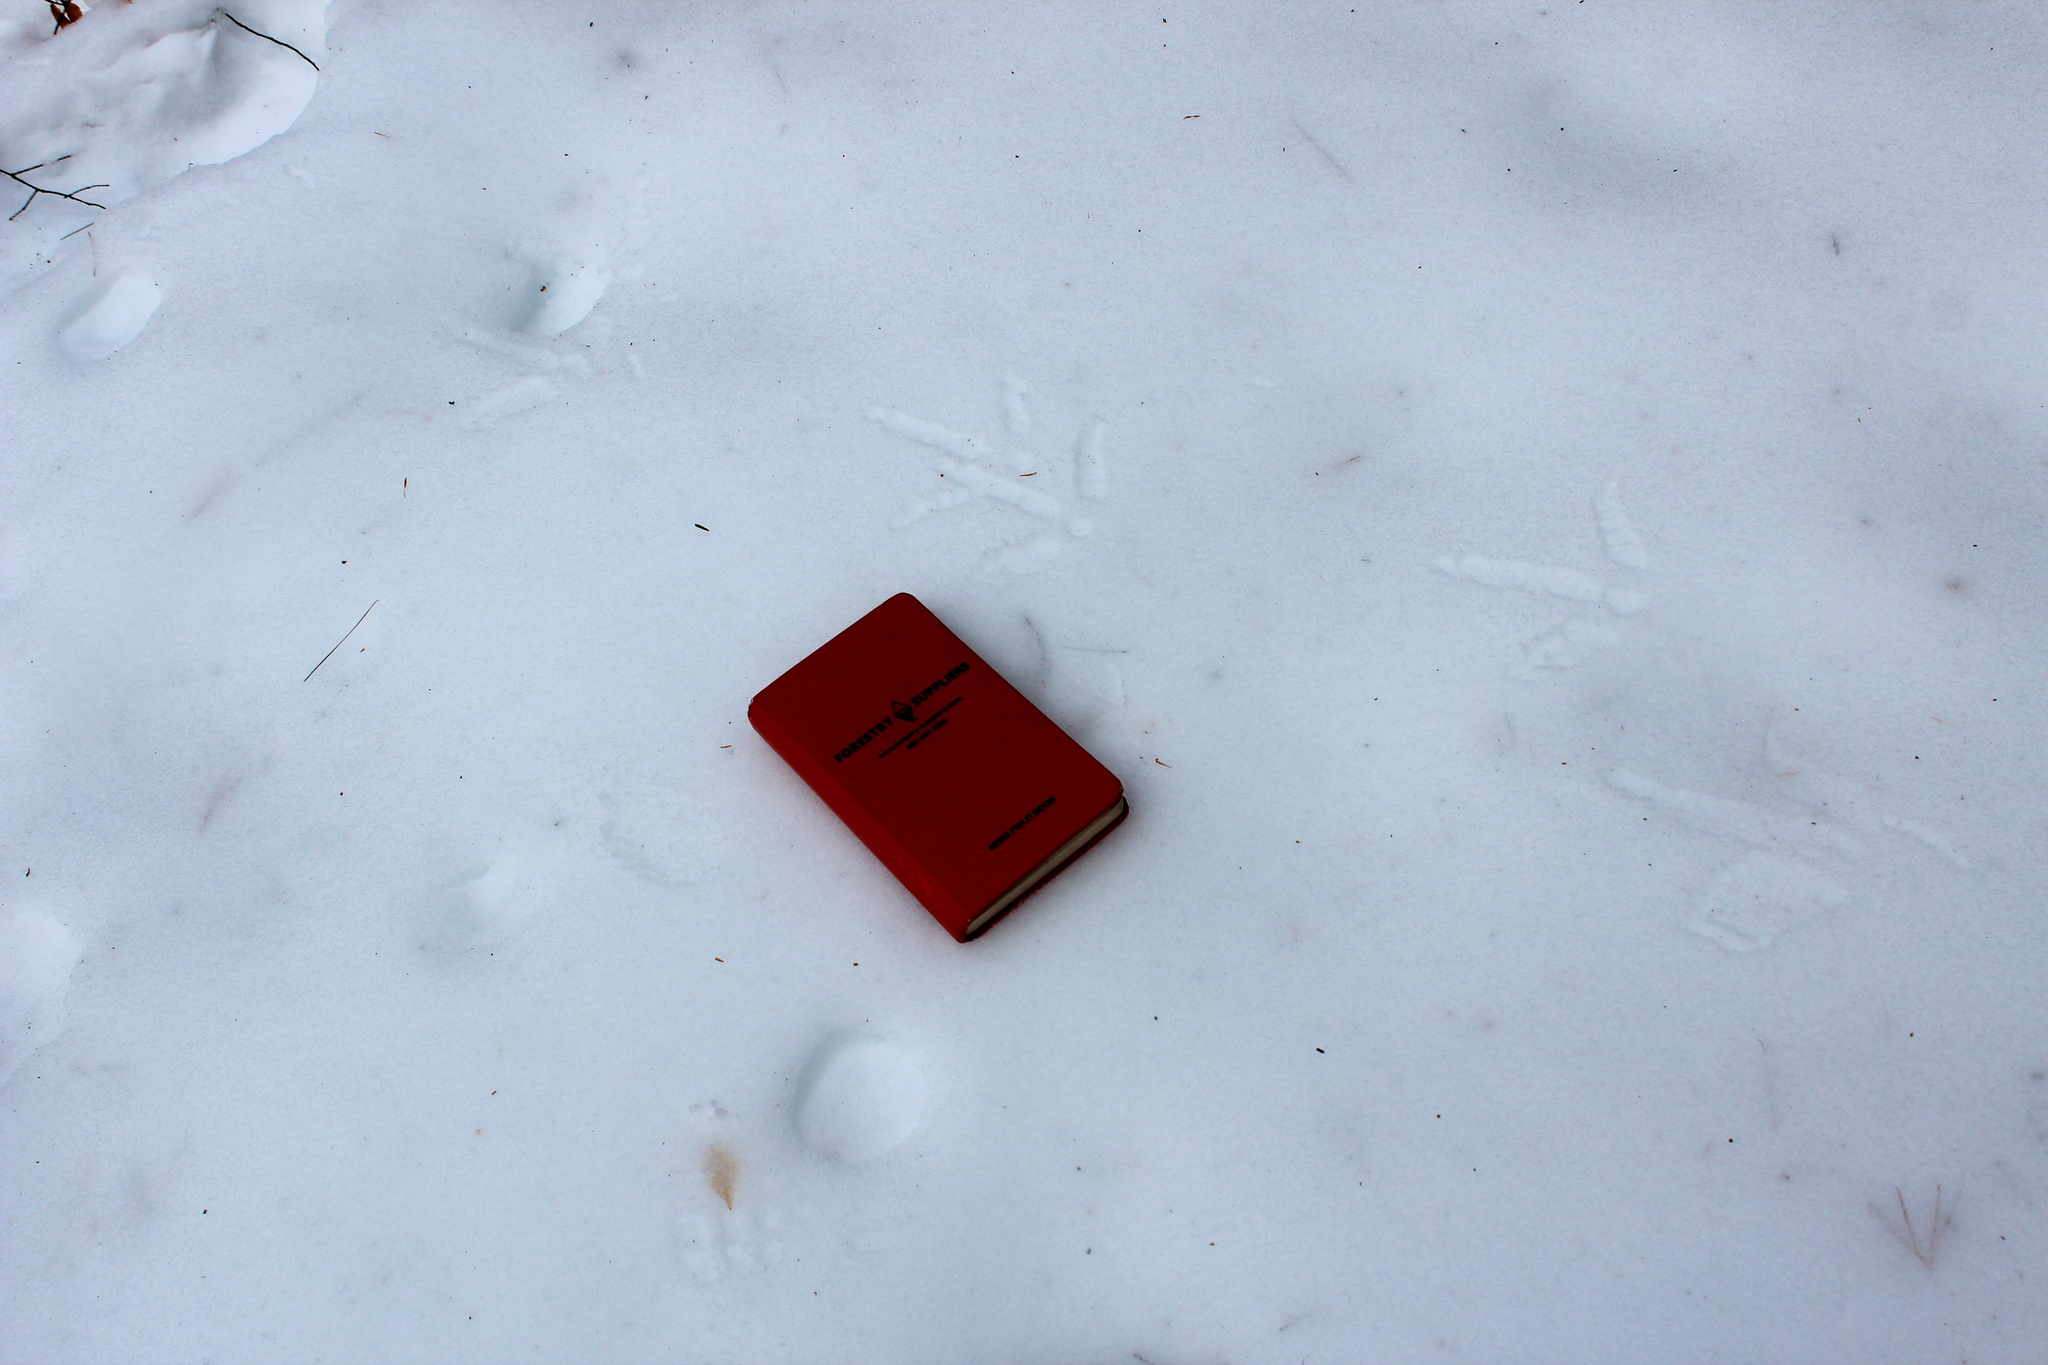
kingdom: Animalia
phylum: Chordata
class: Aves
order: Galliformes
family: Phasianidae
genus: Meleagris
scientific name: Meleagris gallopavo
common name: Wild turkey
